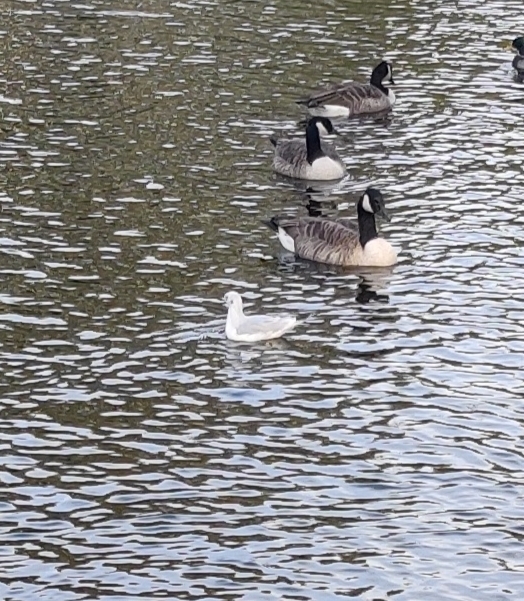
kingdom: Animalia
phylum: Chordata
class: Aves
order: Charadriiformes
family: Laridae
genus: Chroicocephalus
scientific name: Chroicocephalus ridibundus
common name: Black-headed gull
